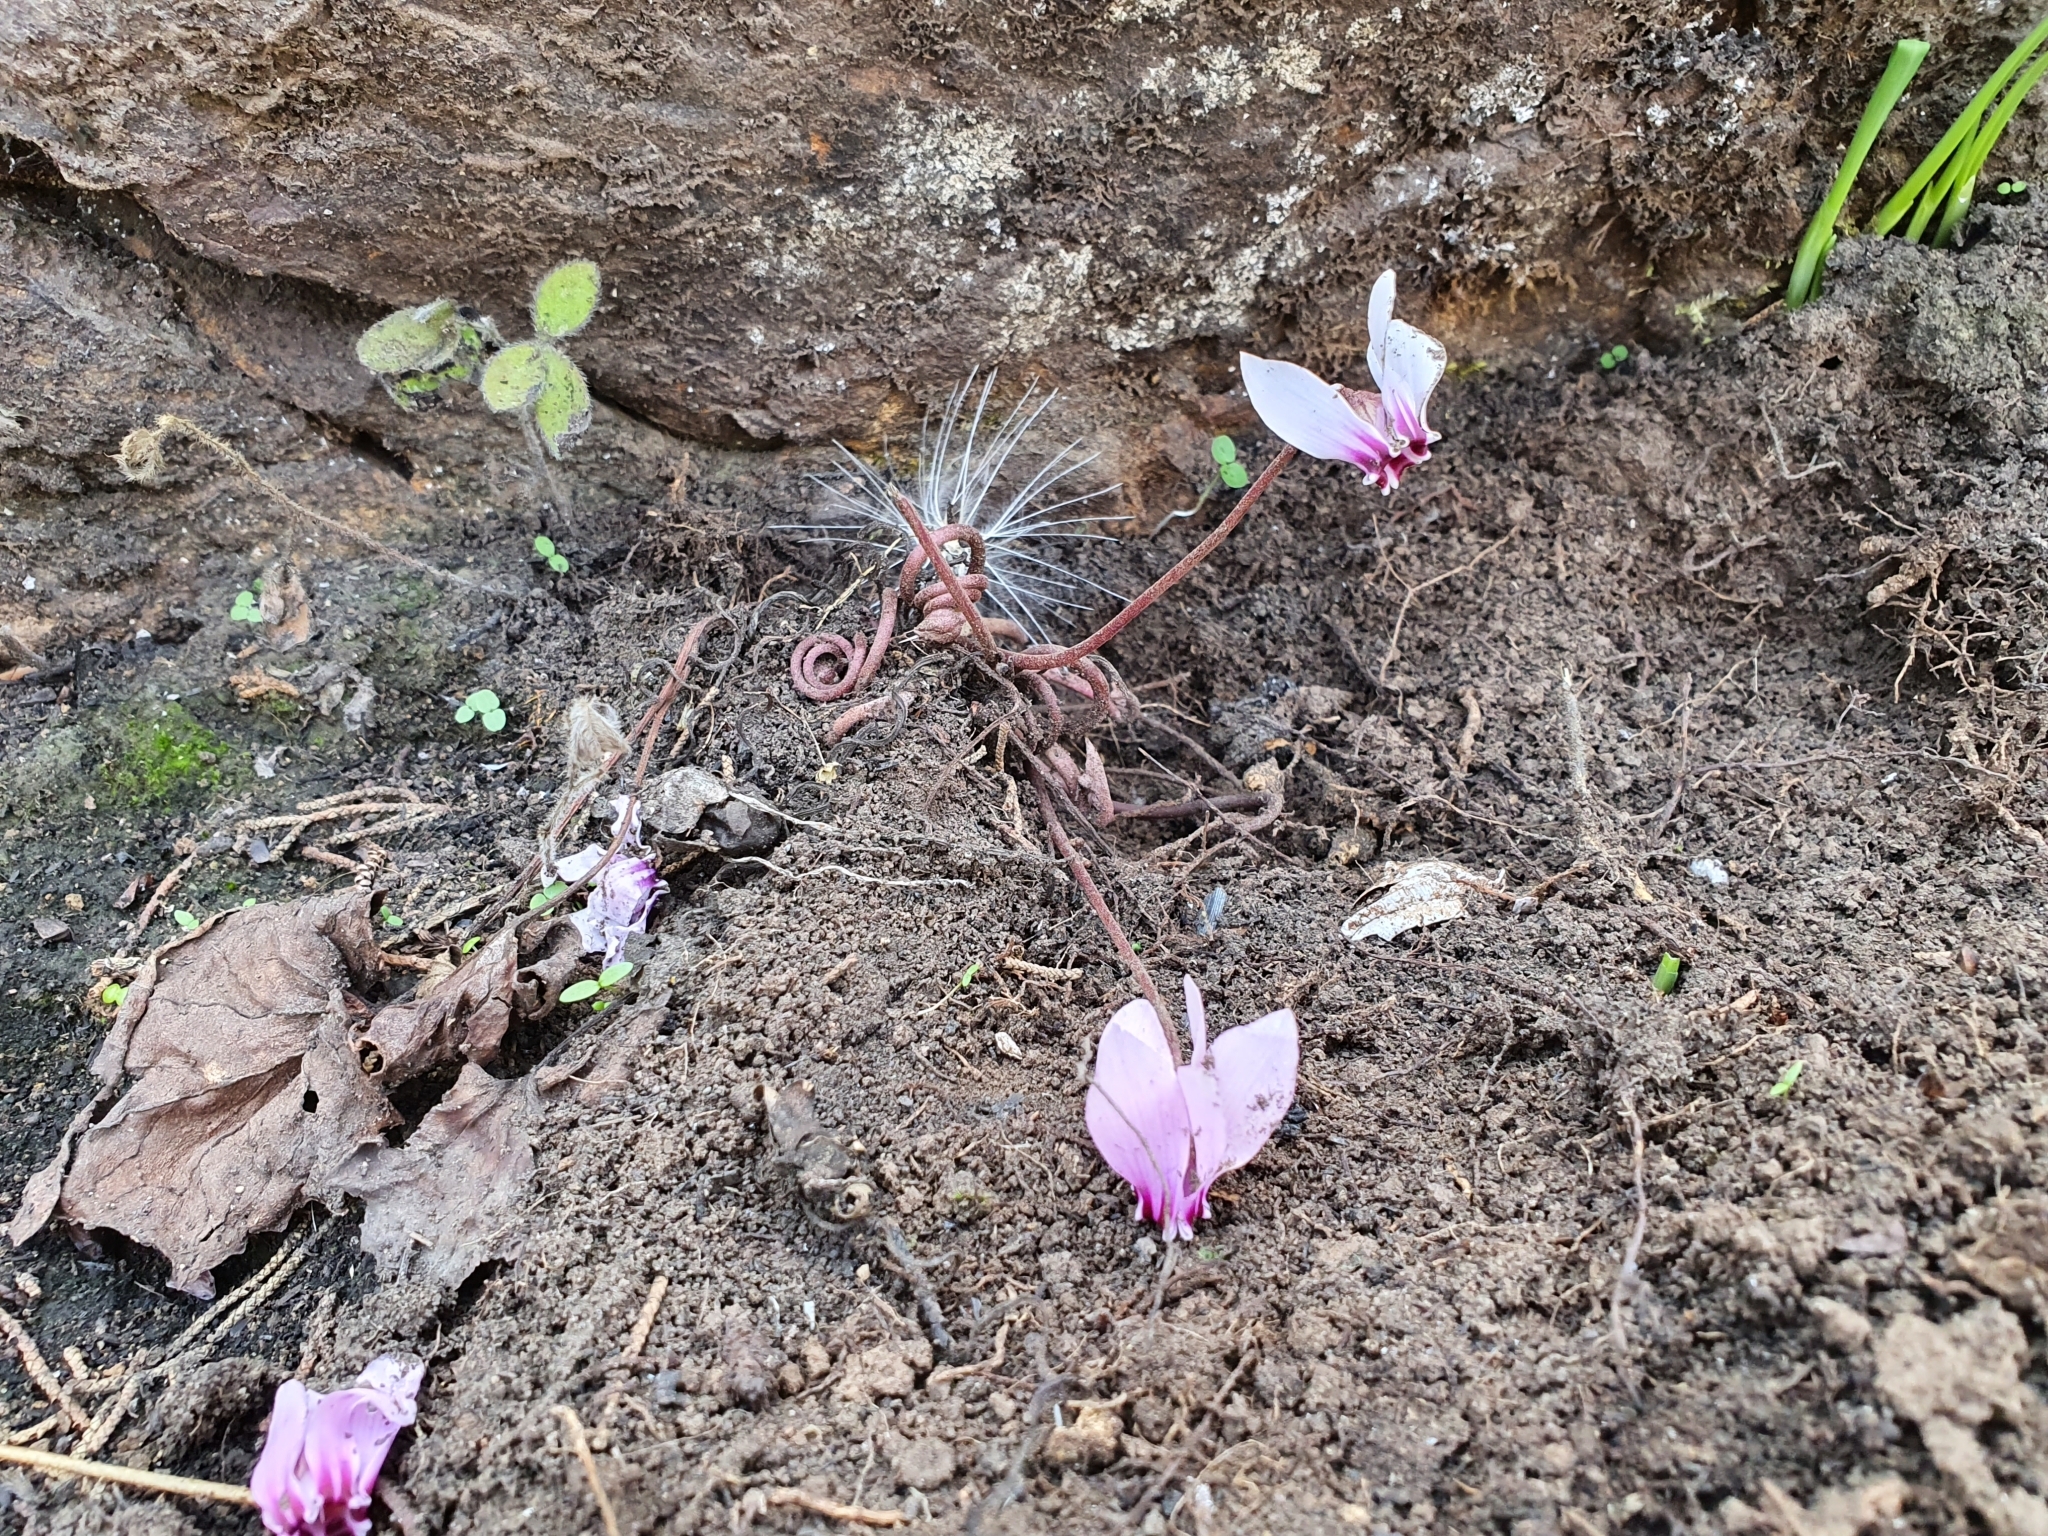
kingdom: Plantae
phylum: Tracheophyta
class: Magnoliopsida
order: Ericales
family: Primulaceae
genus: Cyclamen
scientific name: Cyclamen africanum
